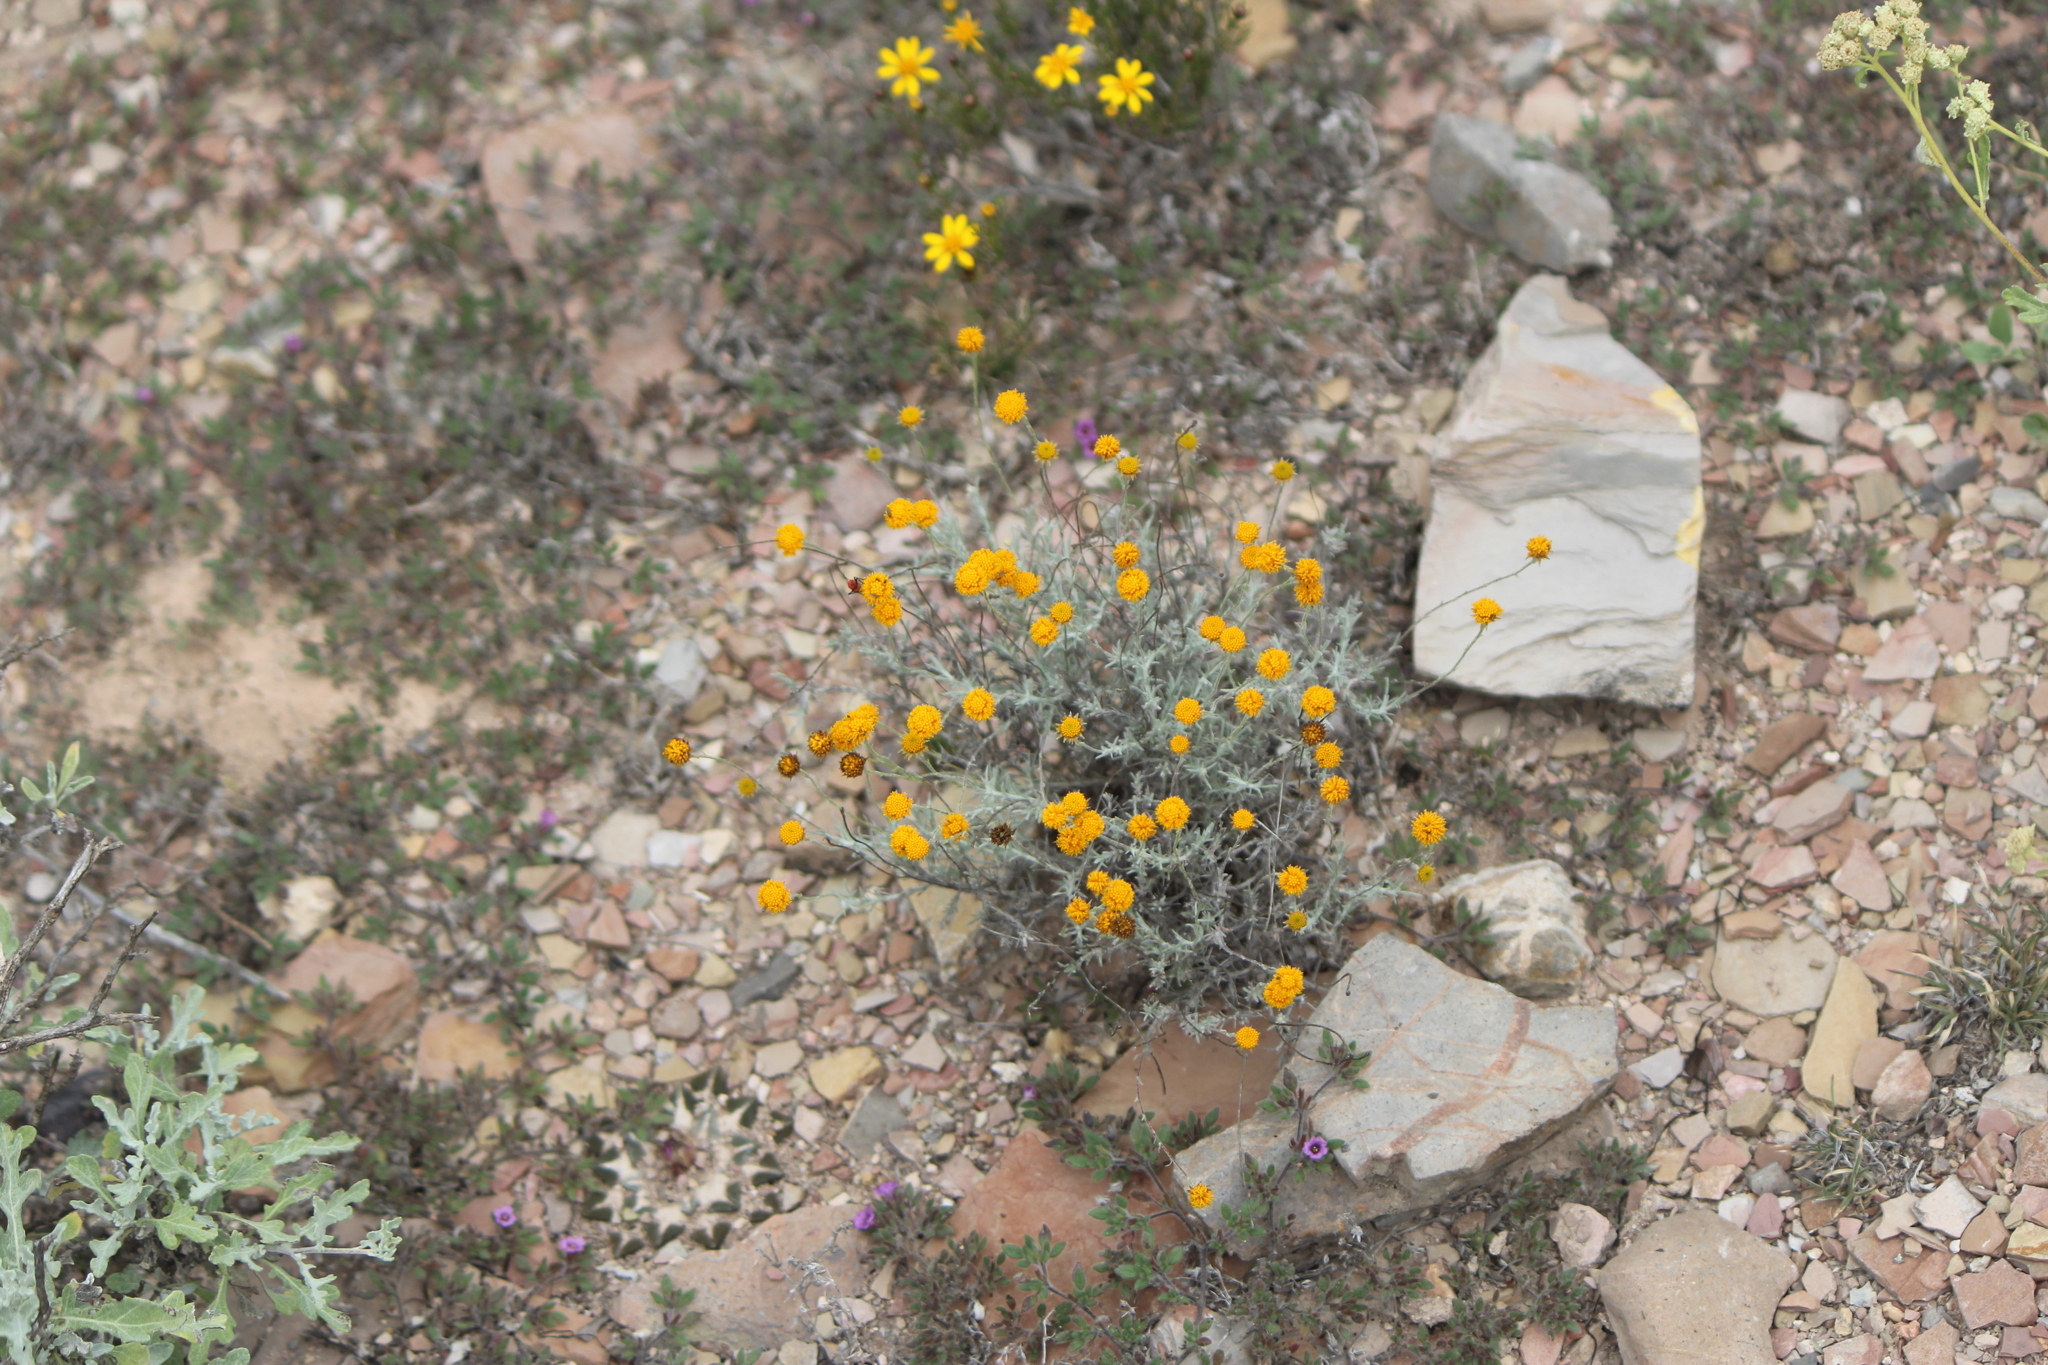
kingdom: Plantae
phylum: Tracheophyta
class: Magnoliopsida
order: Asterales
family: Asteraceae
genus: Thymophylla
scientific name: Thymophylla setifolia
